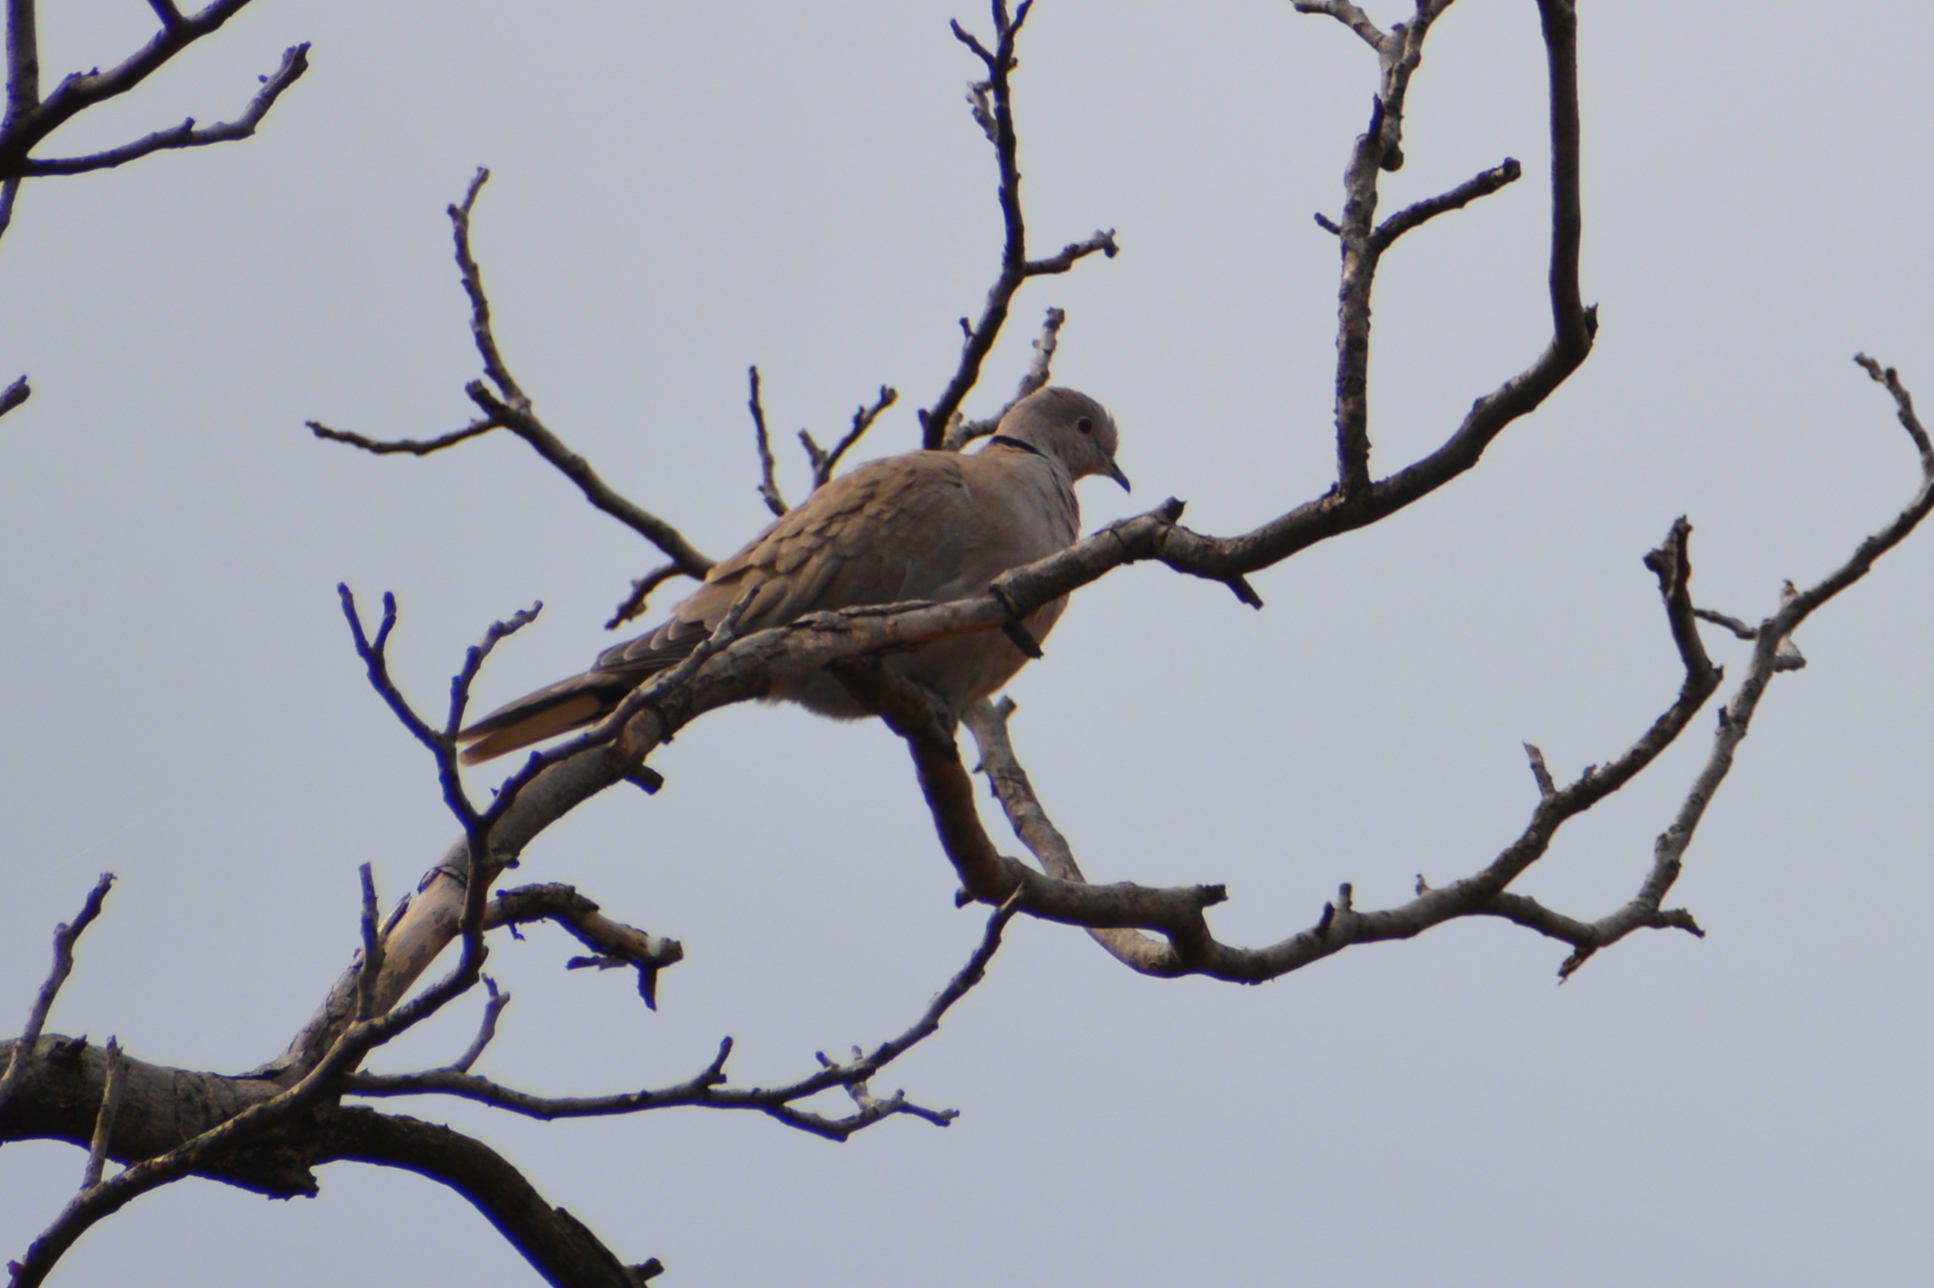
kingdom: Animalia
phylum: Chordata
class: Aves
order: Columbiformes
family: Columbidae
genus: Streptopelia
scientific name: Streptopelia decaocto
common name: Eurasian collared dove
